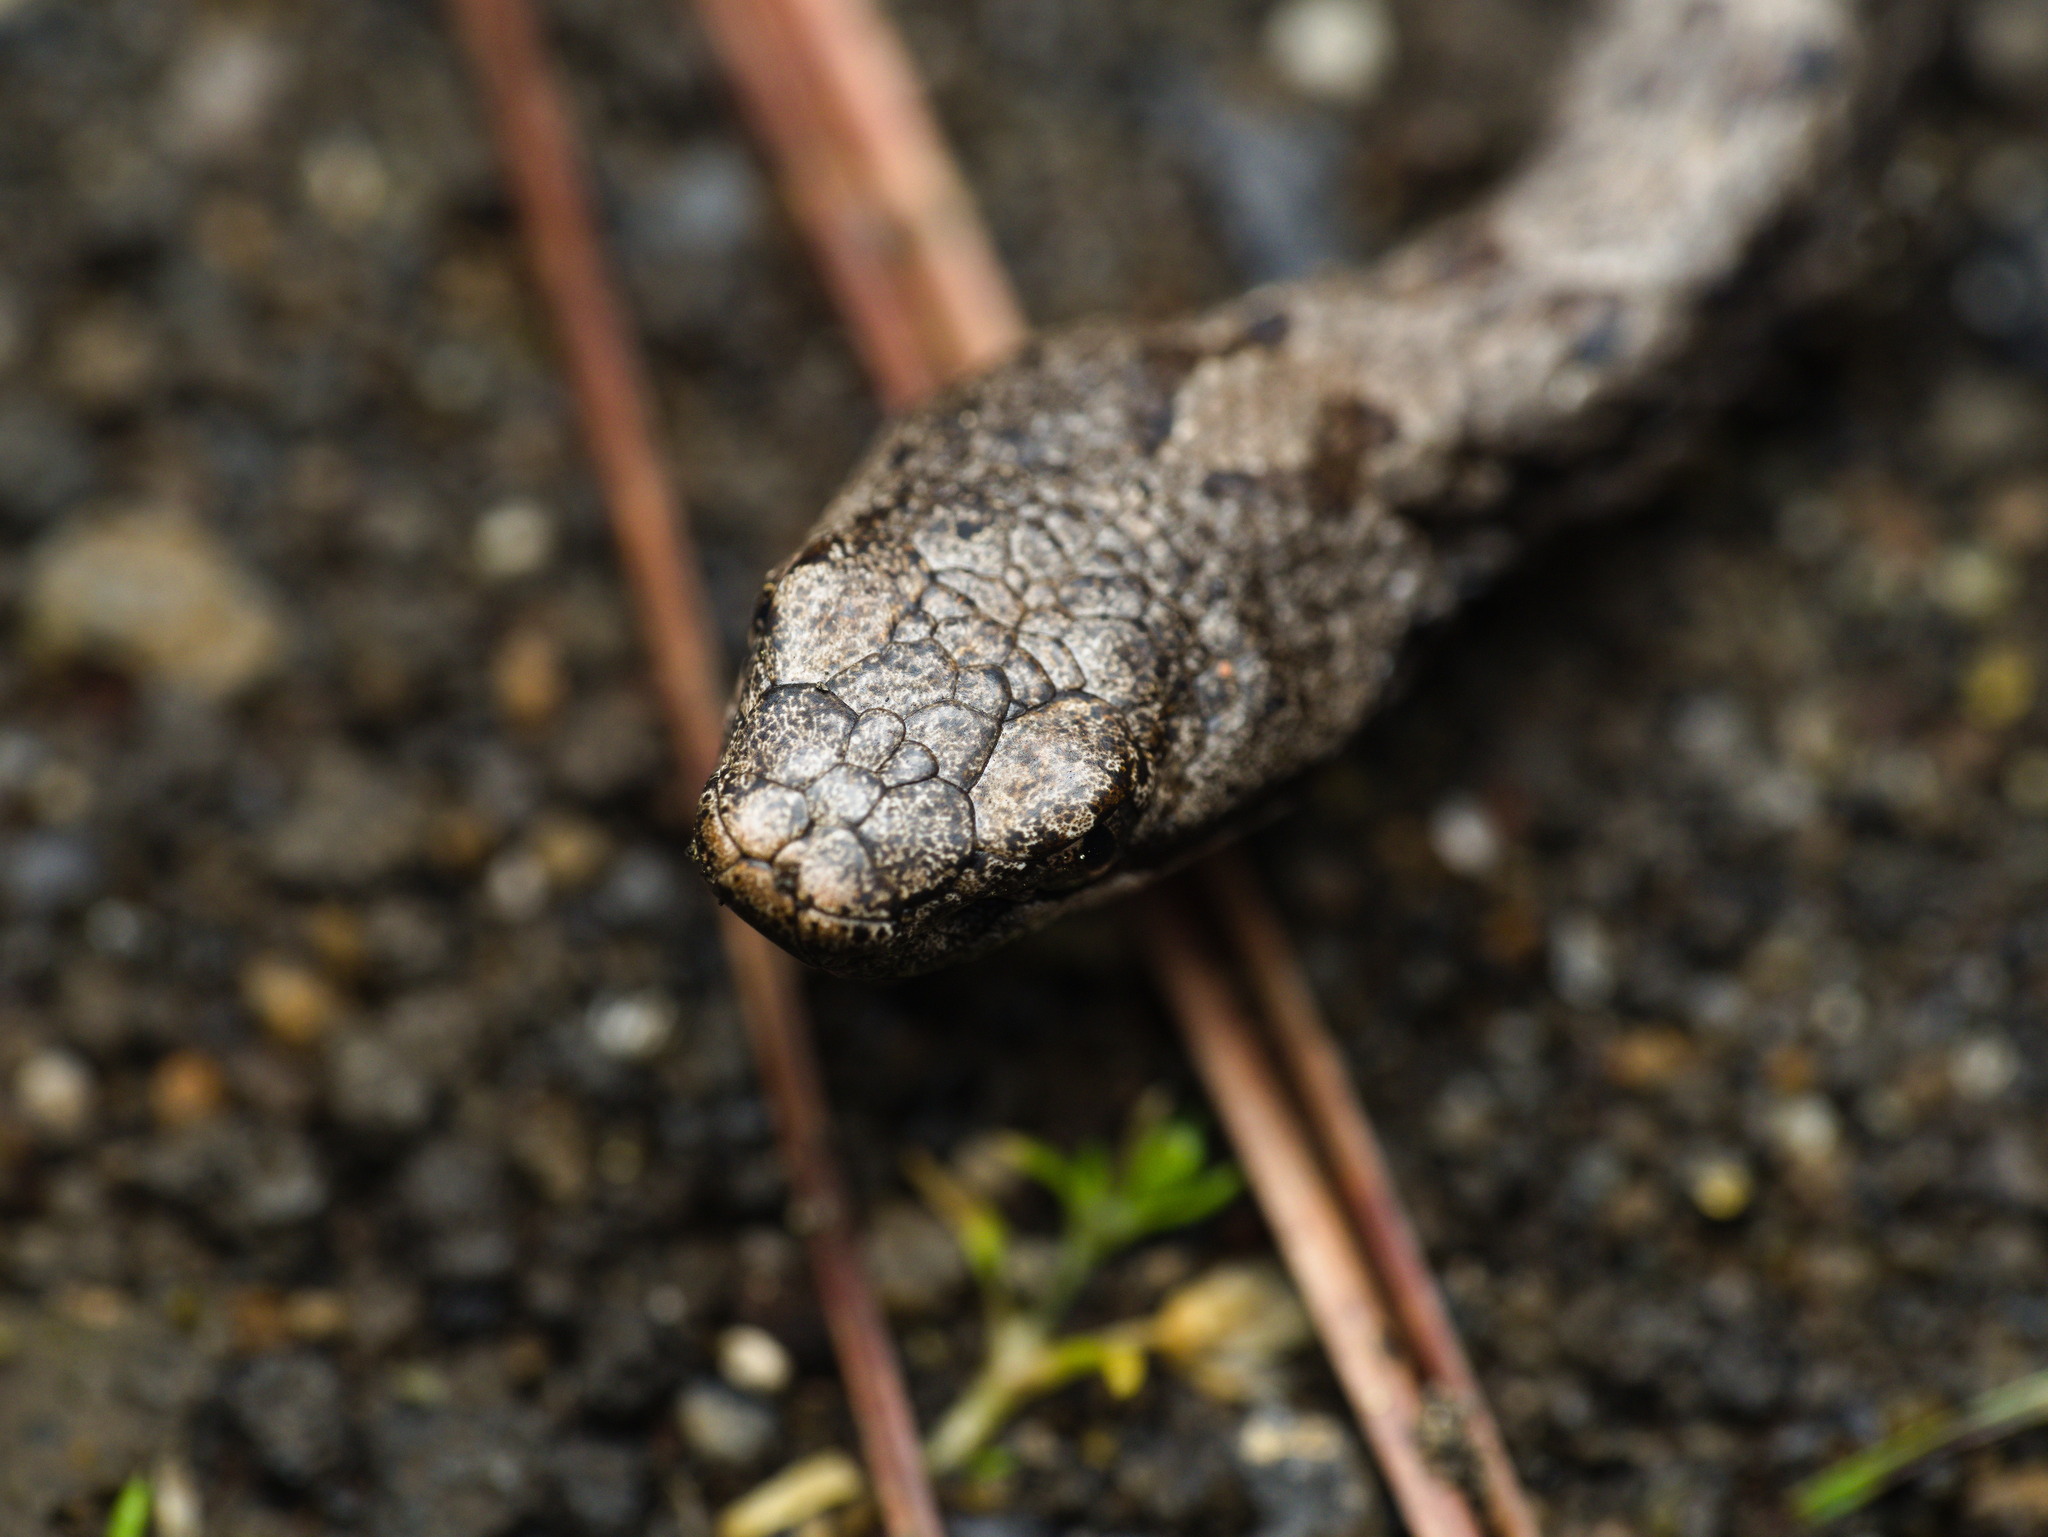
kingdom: Animalia
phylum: Chordata
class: Squamata
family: Viperidae
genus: Crotalus
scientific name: Crotalus transversus
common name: Cross-banded mountain rattlesnake
